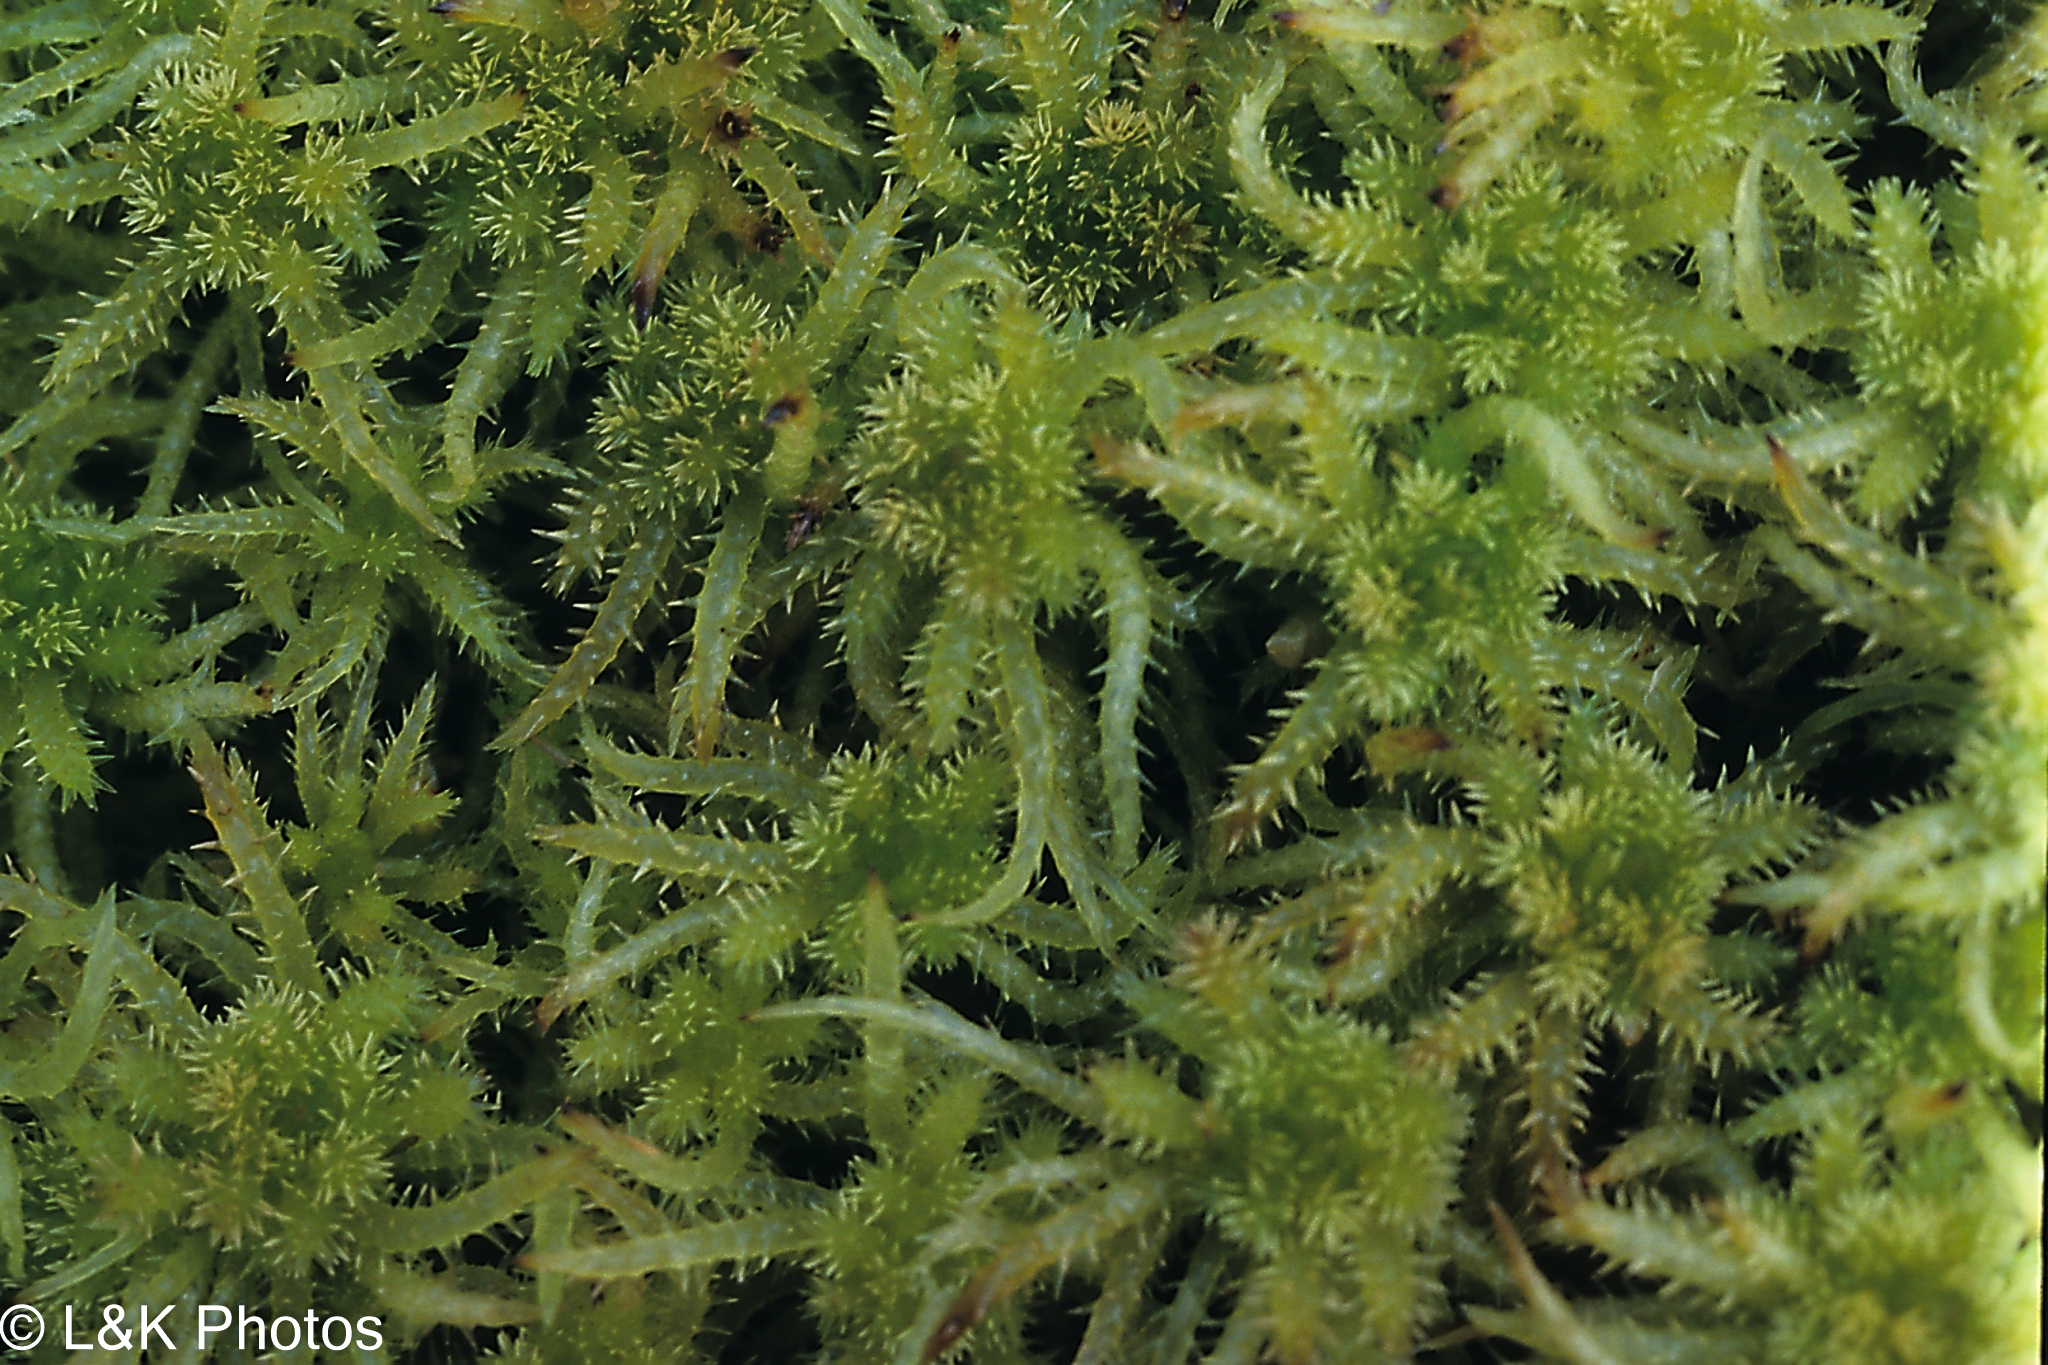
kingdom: Plantae
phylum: Bryophyta
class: Sphagnopsida
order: Sphagnales
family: Sphagnaceae
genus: Sphagnum
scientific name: Sphagnum squarrosum
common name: Shaggy peat moss
